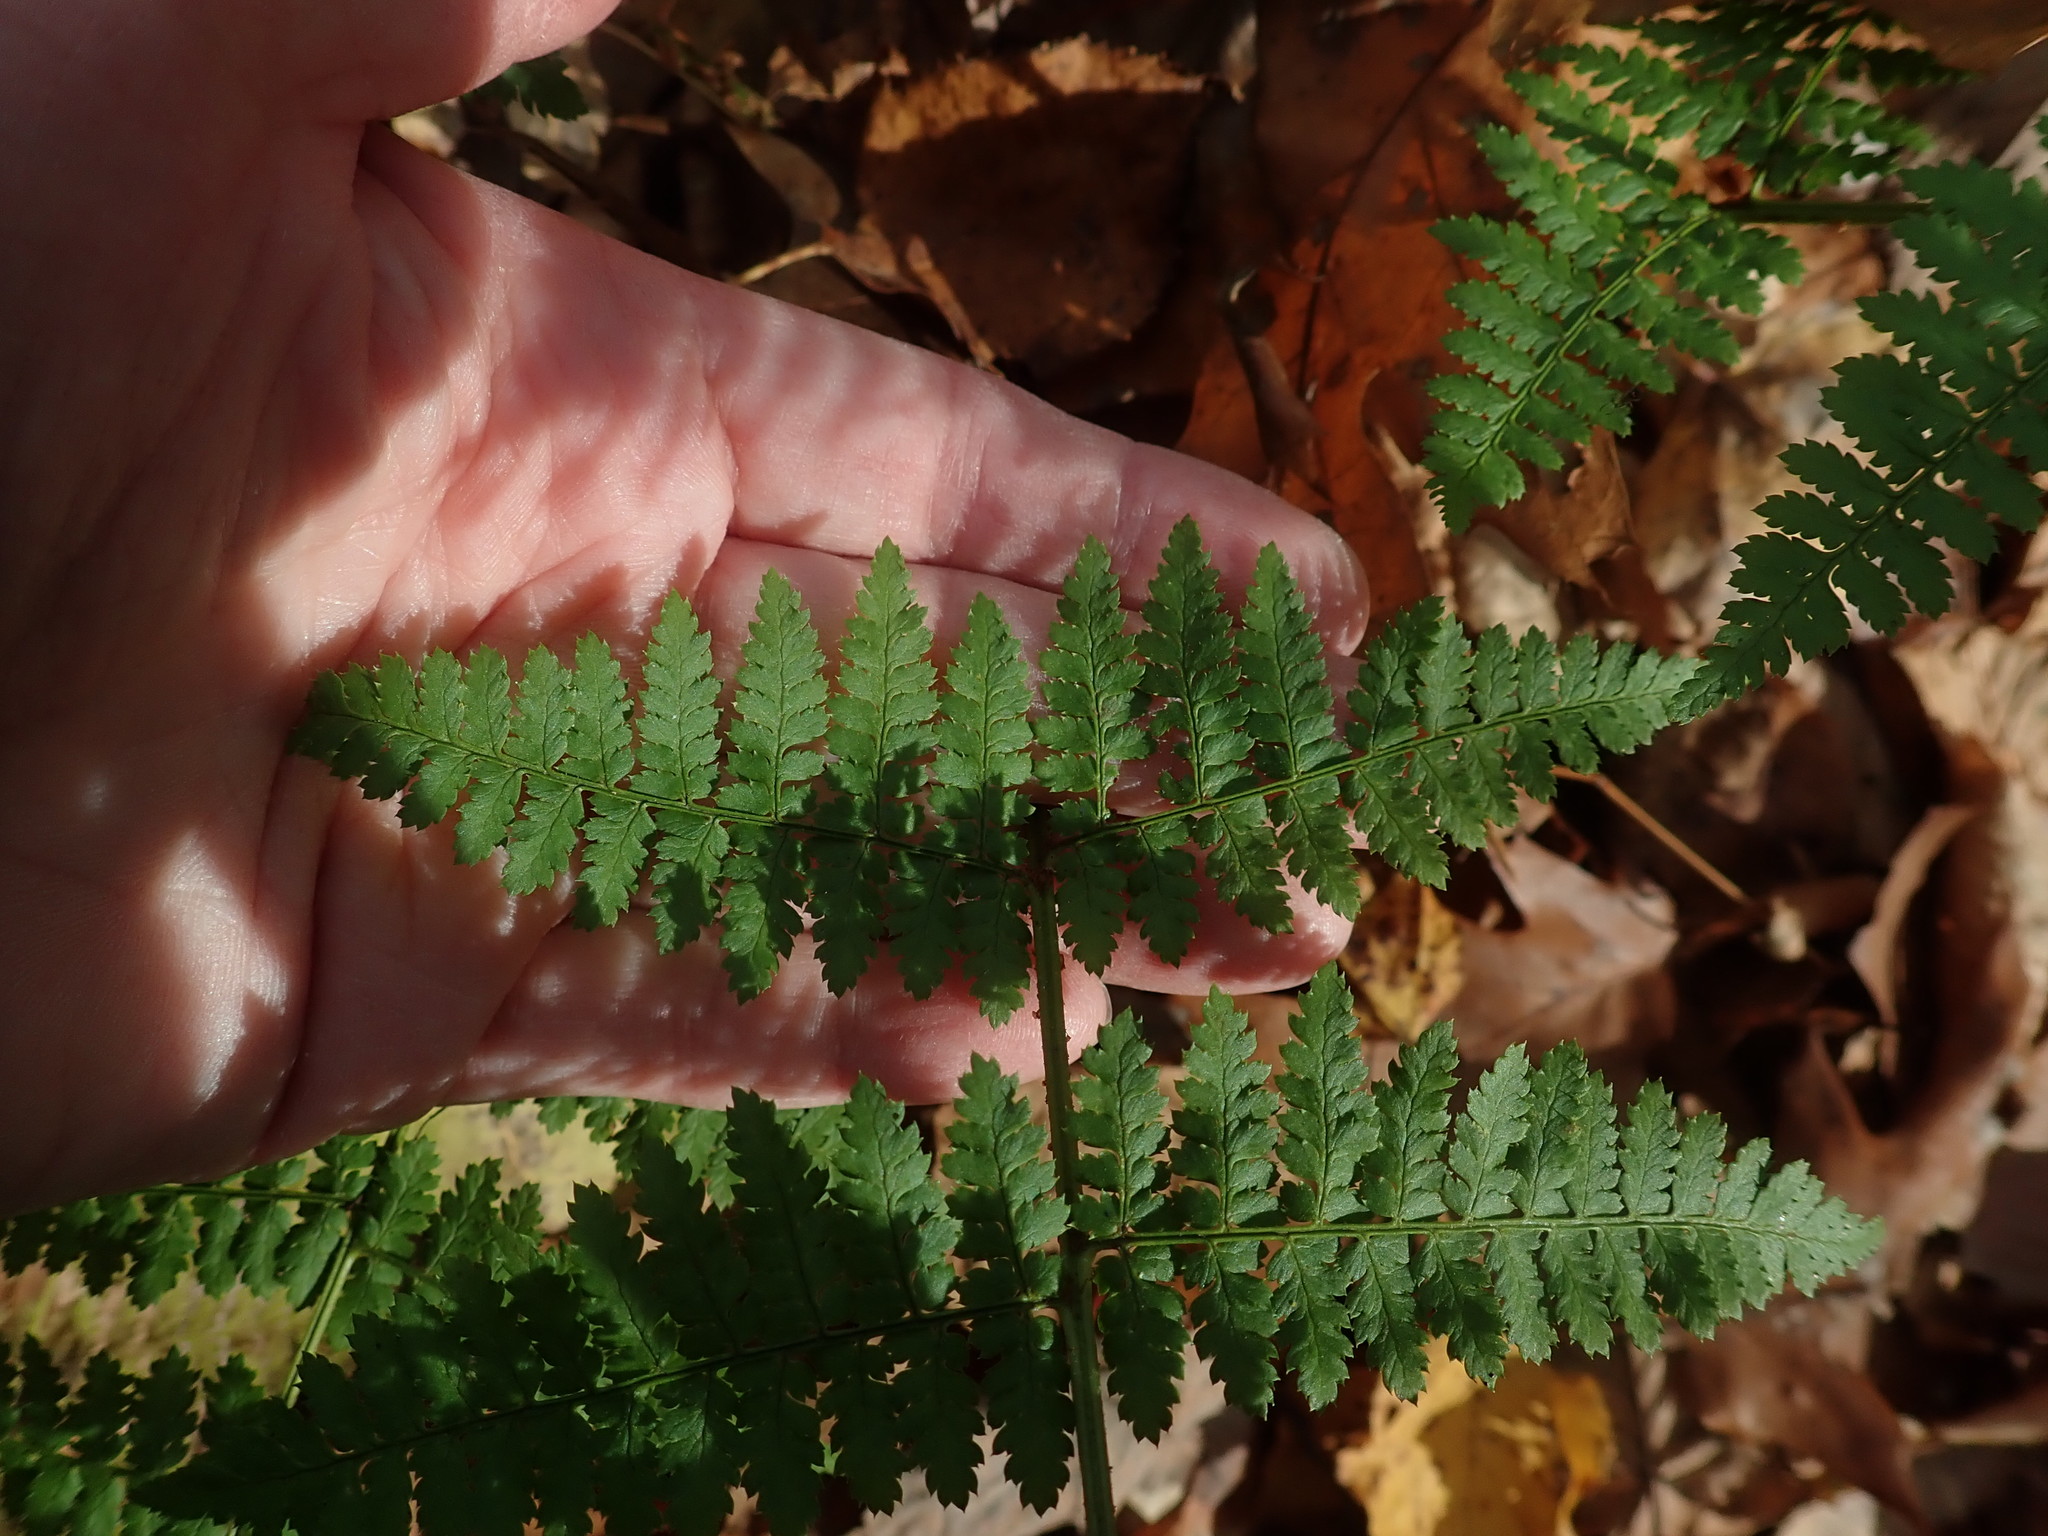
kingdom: Plantae
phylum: Tracheophyta
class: Polypodiopsida
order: Polypodiales
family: Dryopteridaceae
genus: Dryopteris
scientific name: Dryopteris intermedia
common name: Evergreen wood fern
